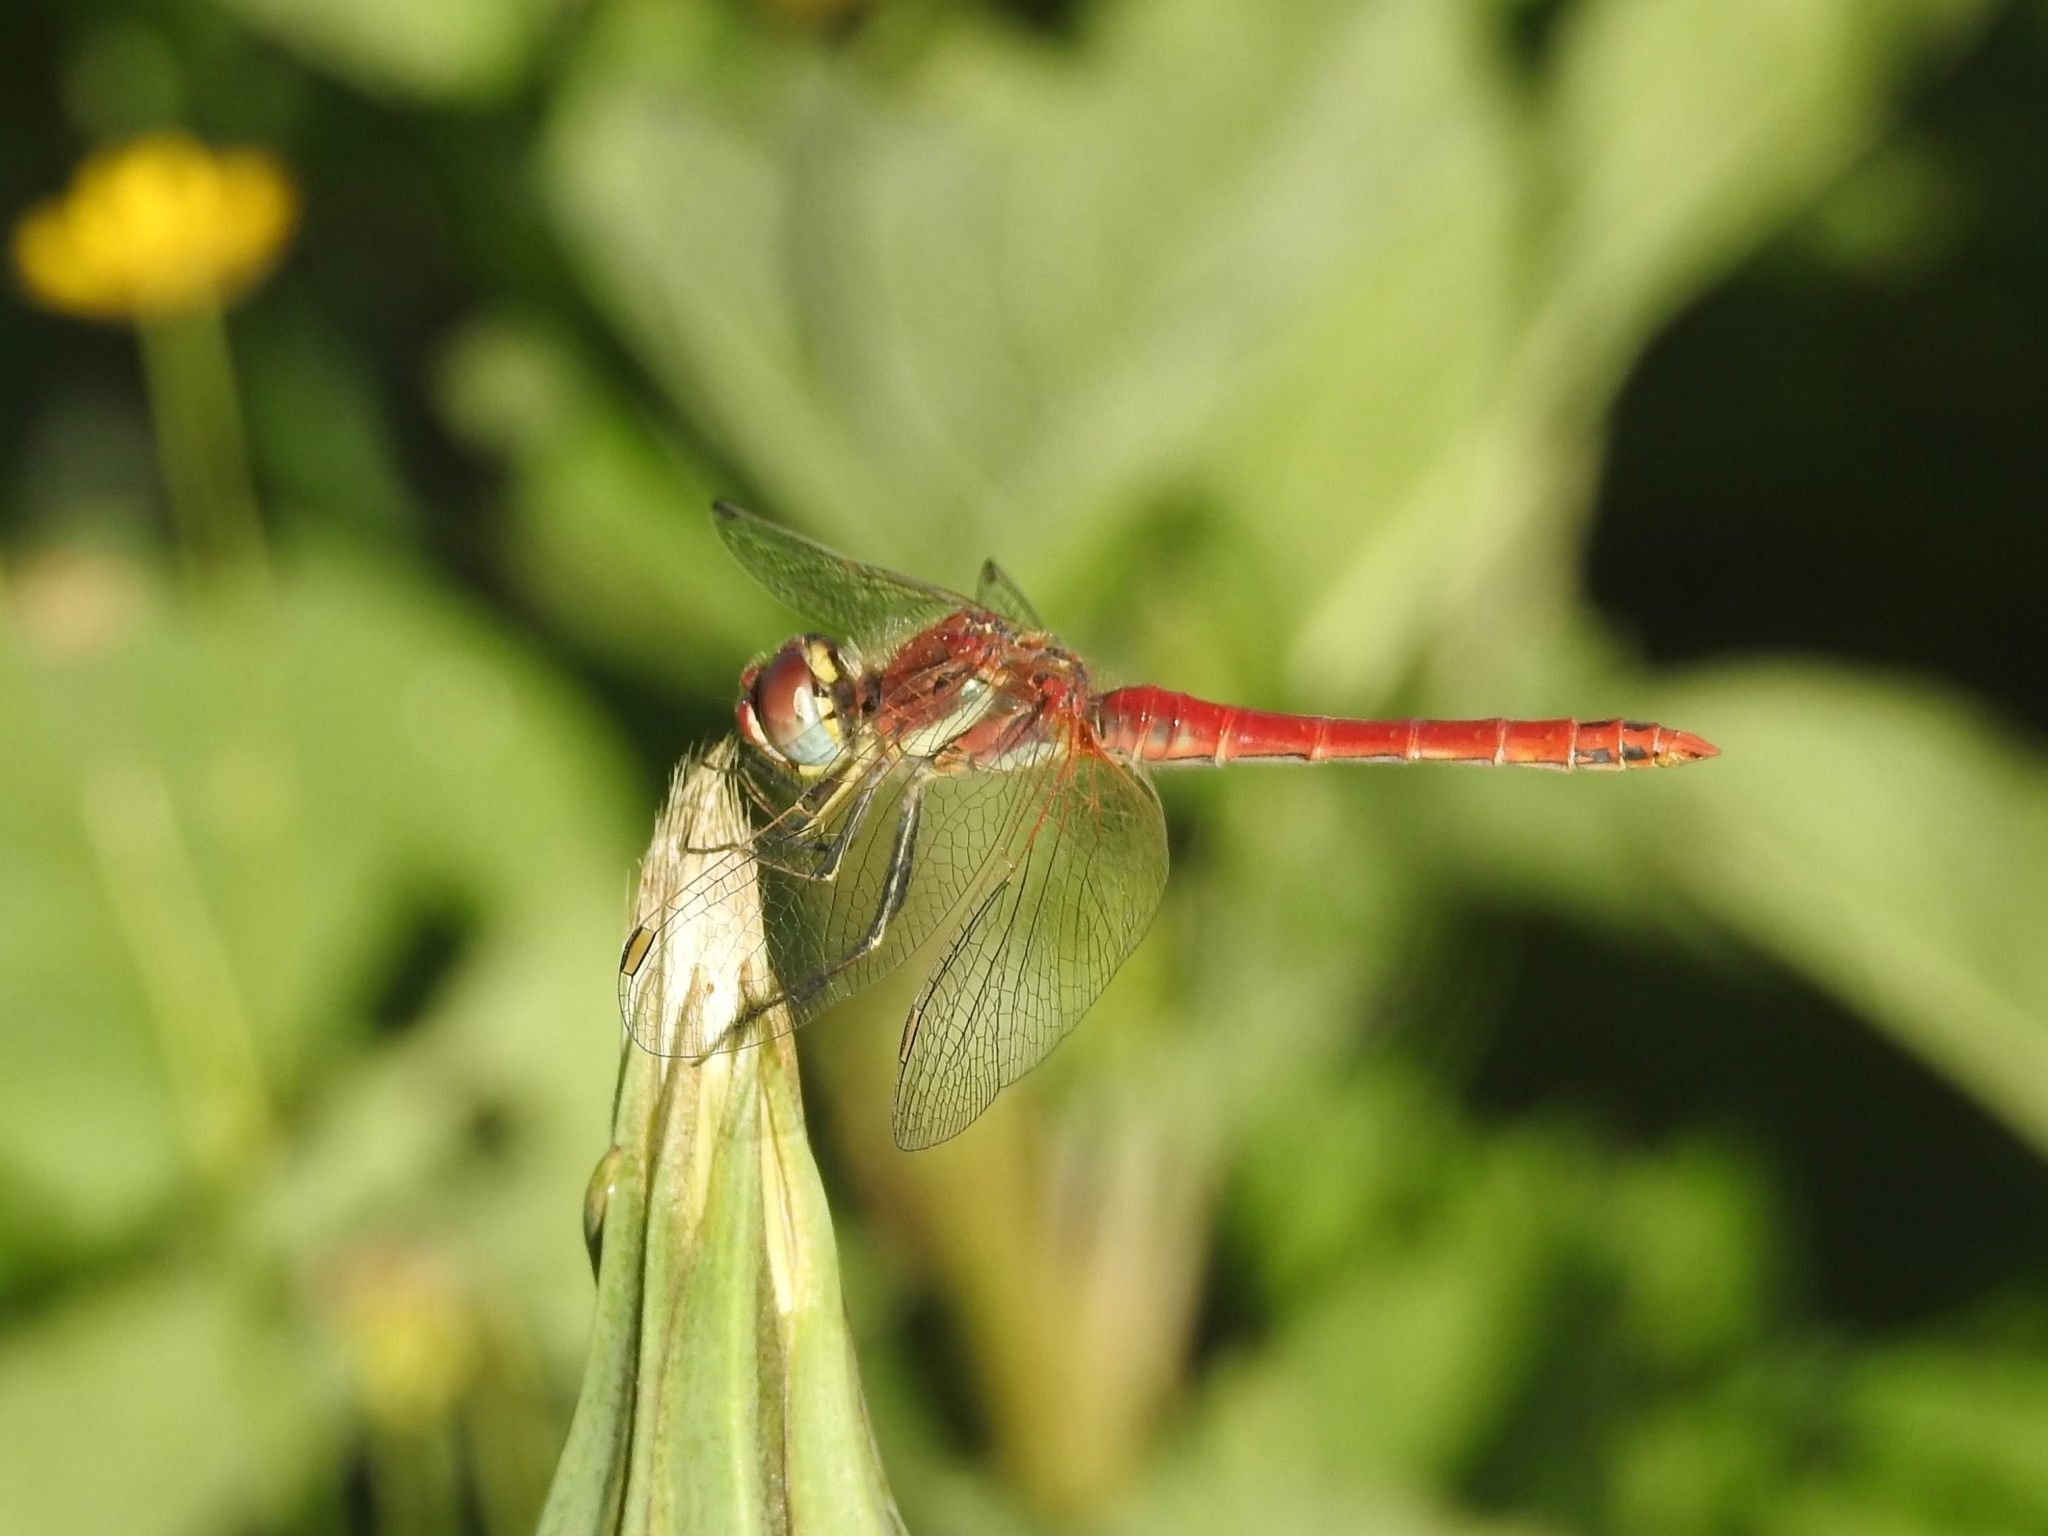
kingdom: Animalia
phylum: Arthropoda
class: Insecta
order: Odonata
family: Libellulidae
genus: Sympetrum
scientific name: Sympetrum fonscolombii
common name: Red-veined darter
